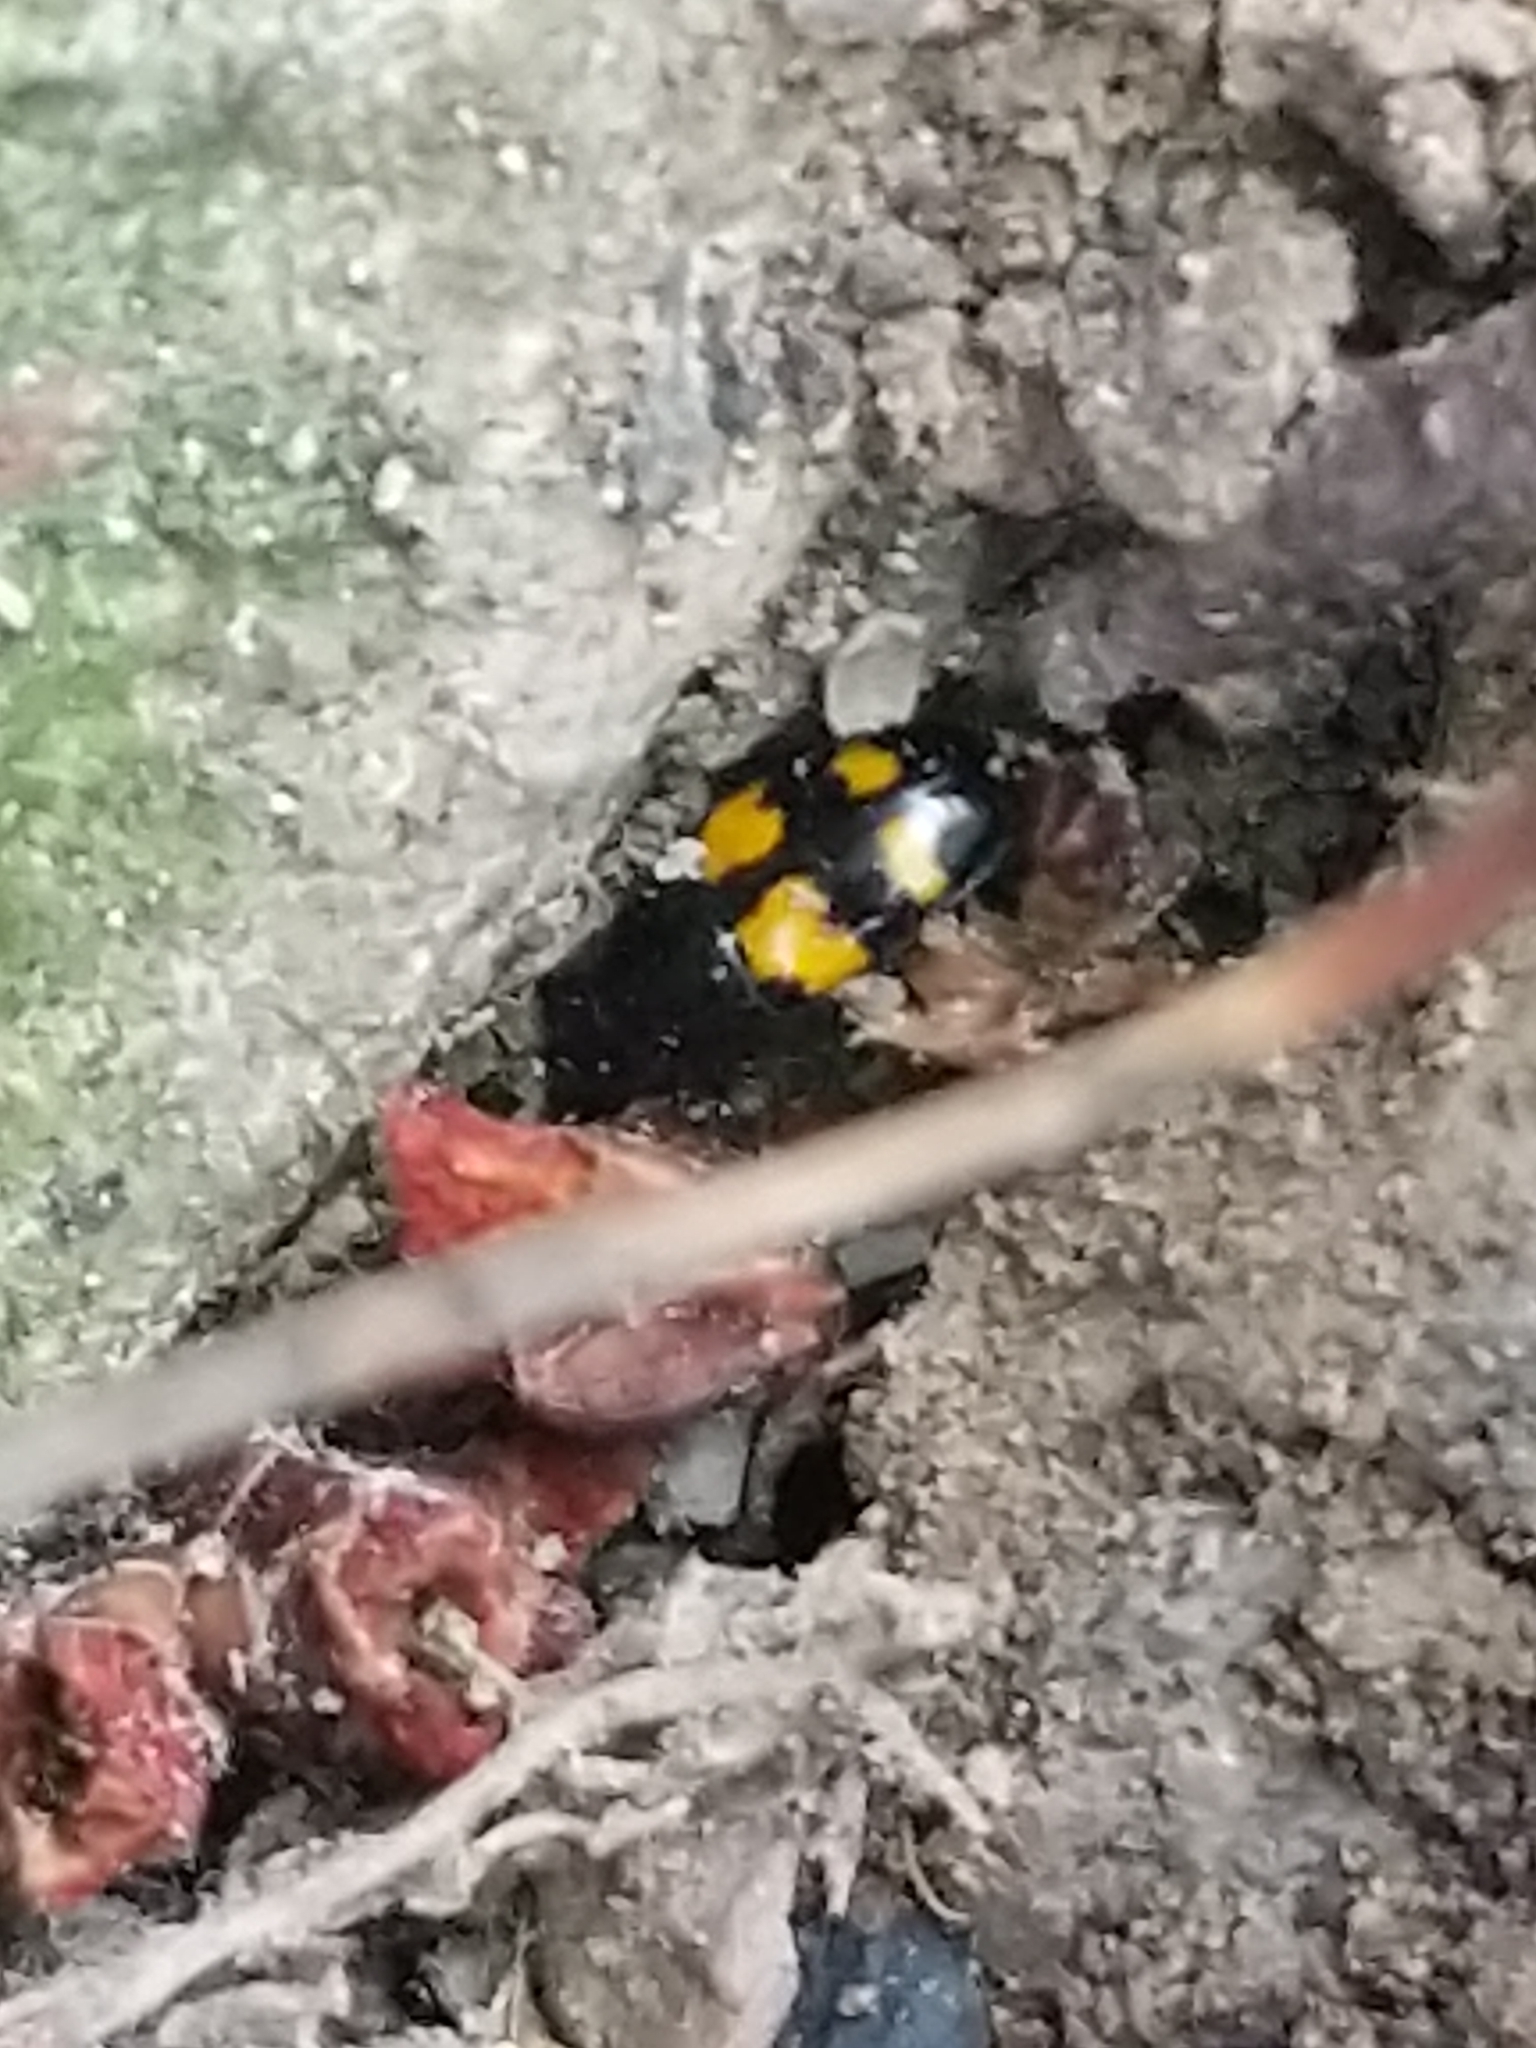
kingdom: Animalia
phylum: Arthropoda
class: Insecta
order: Coleoptera
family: Nitidulidae
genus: Glischrochilus
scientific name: Glischrochilus fasciatus
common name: Picnic beetle
